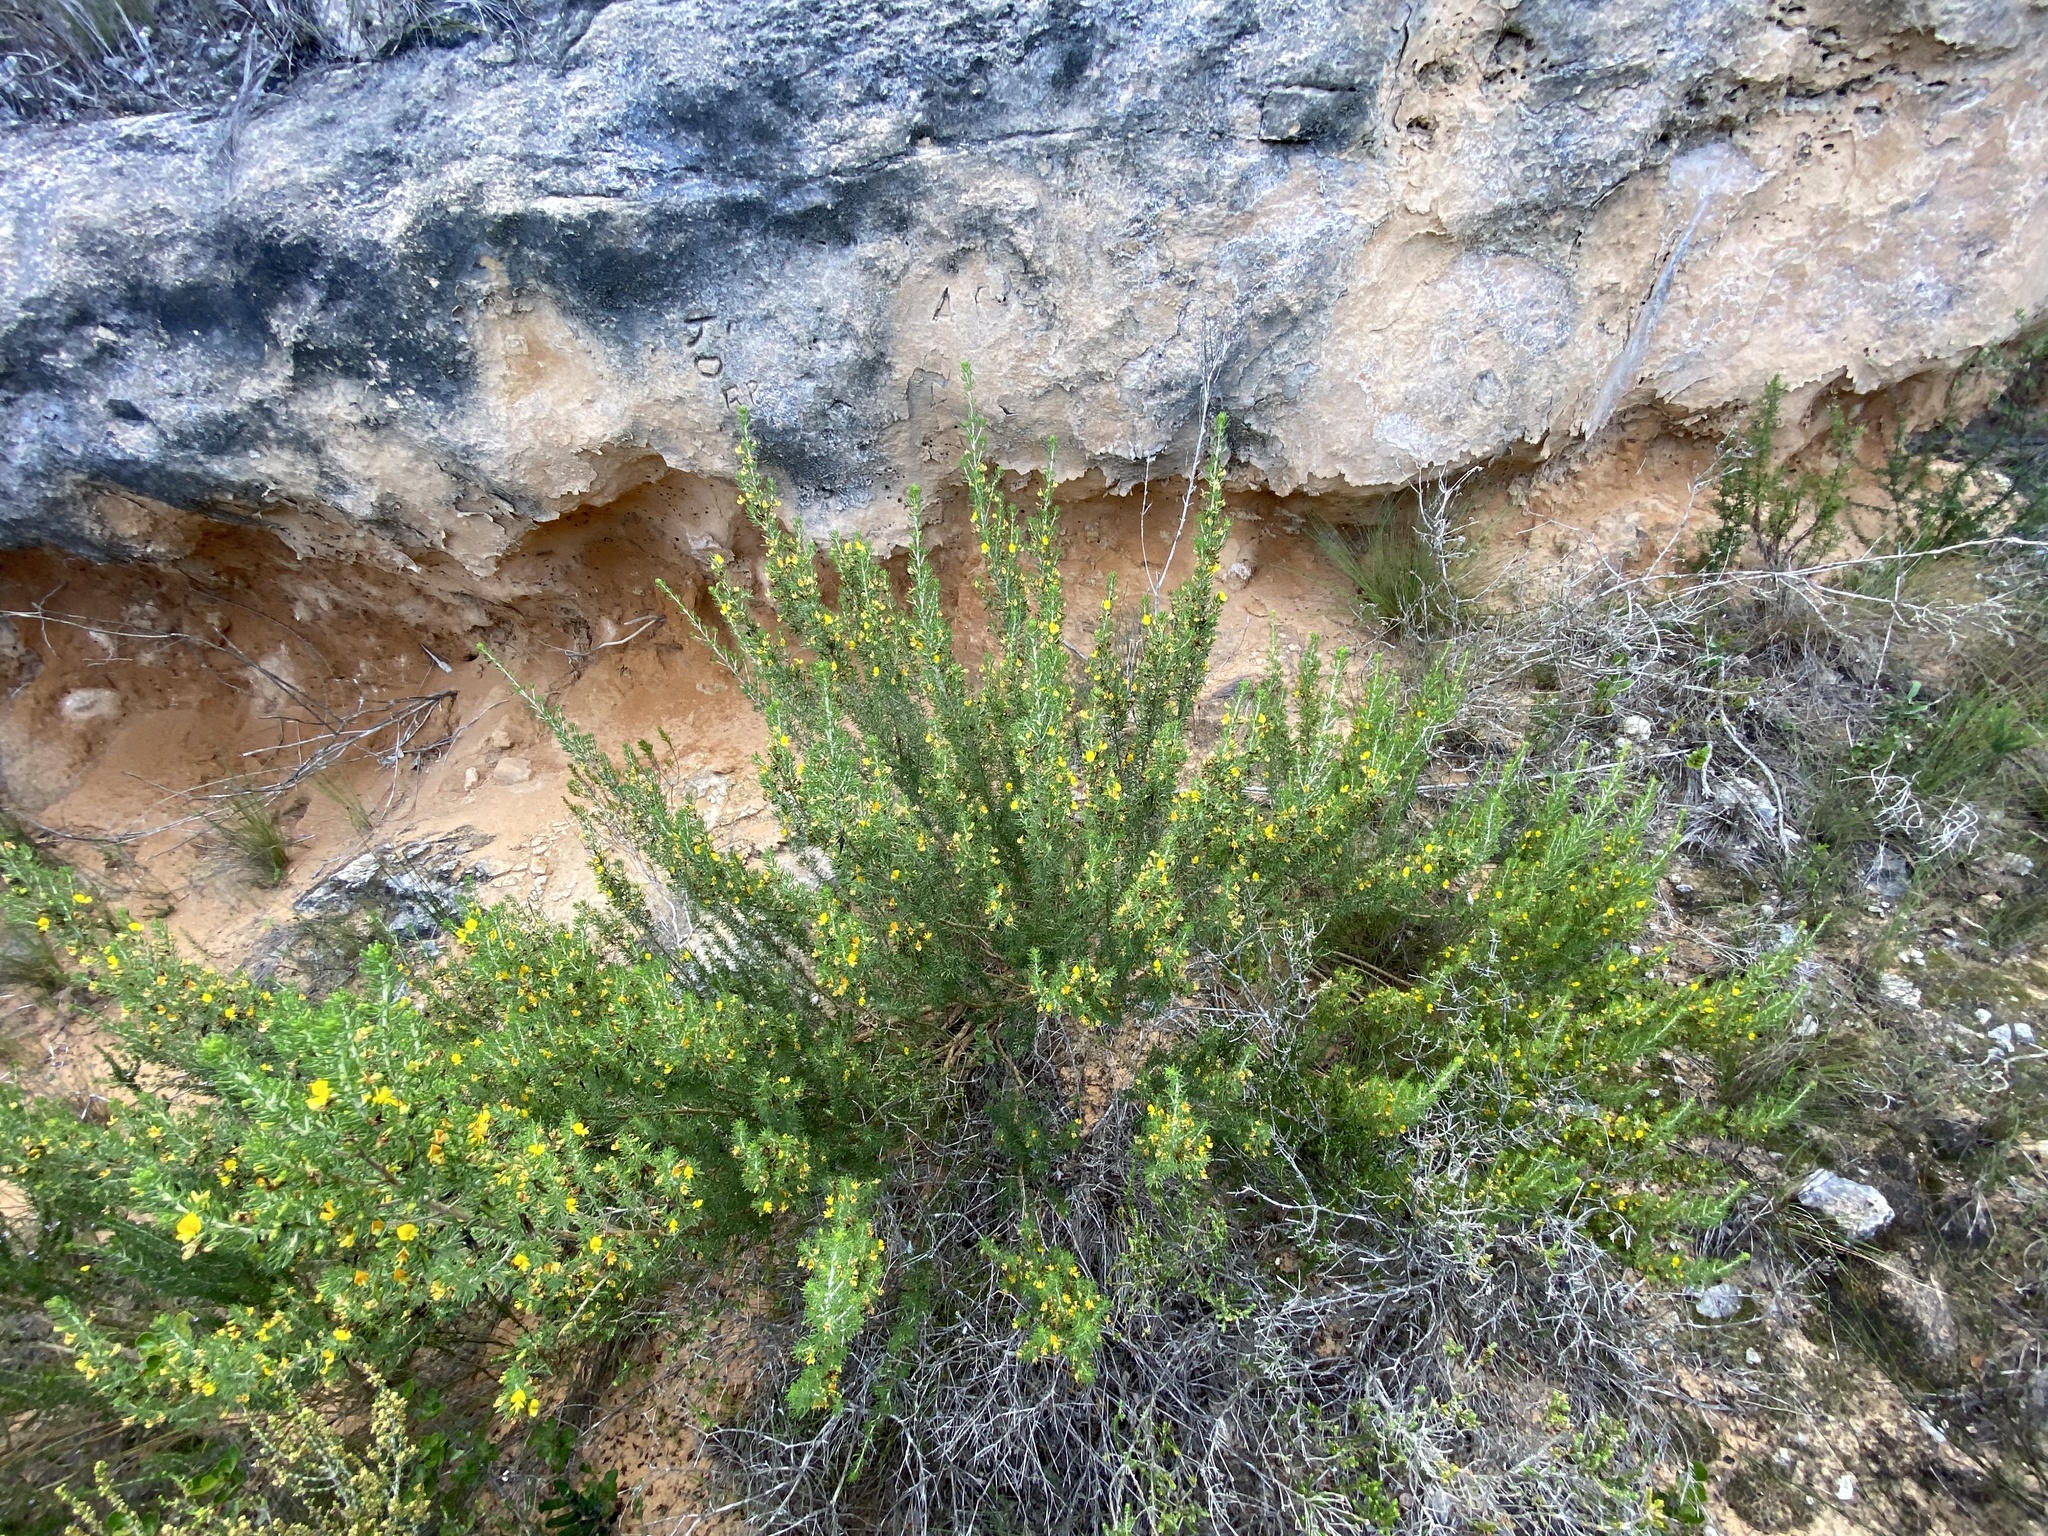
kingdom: Plantae
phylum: Tracheophyta
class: Magnoliopsida
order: Fabales
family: Fabaceae
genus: Aspalathus
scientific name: Aspalathus sanguinea
